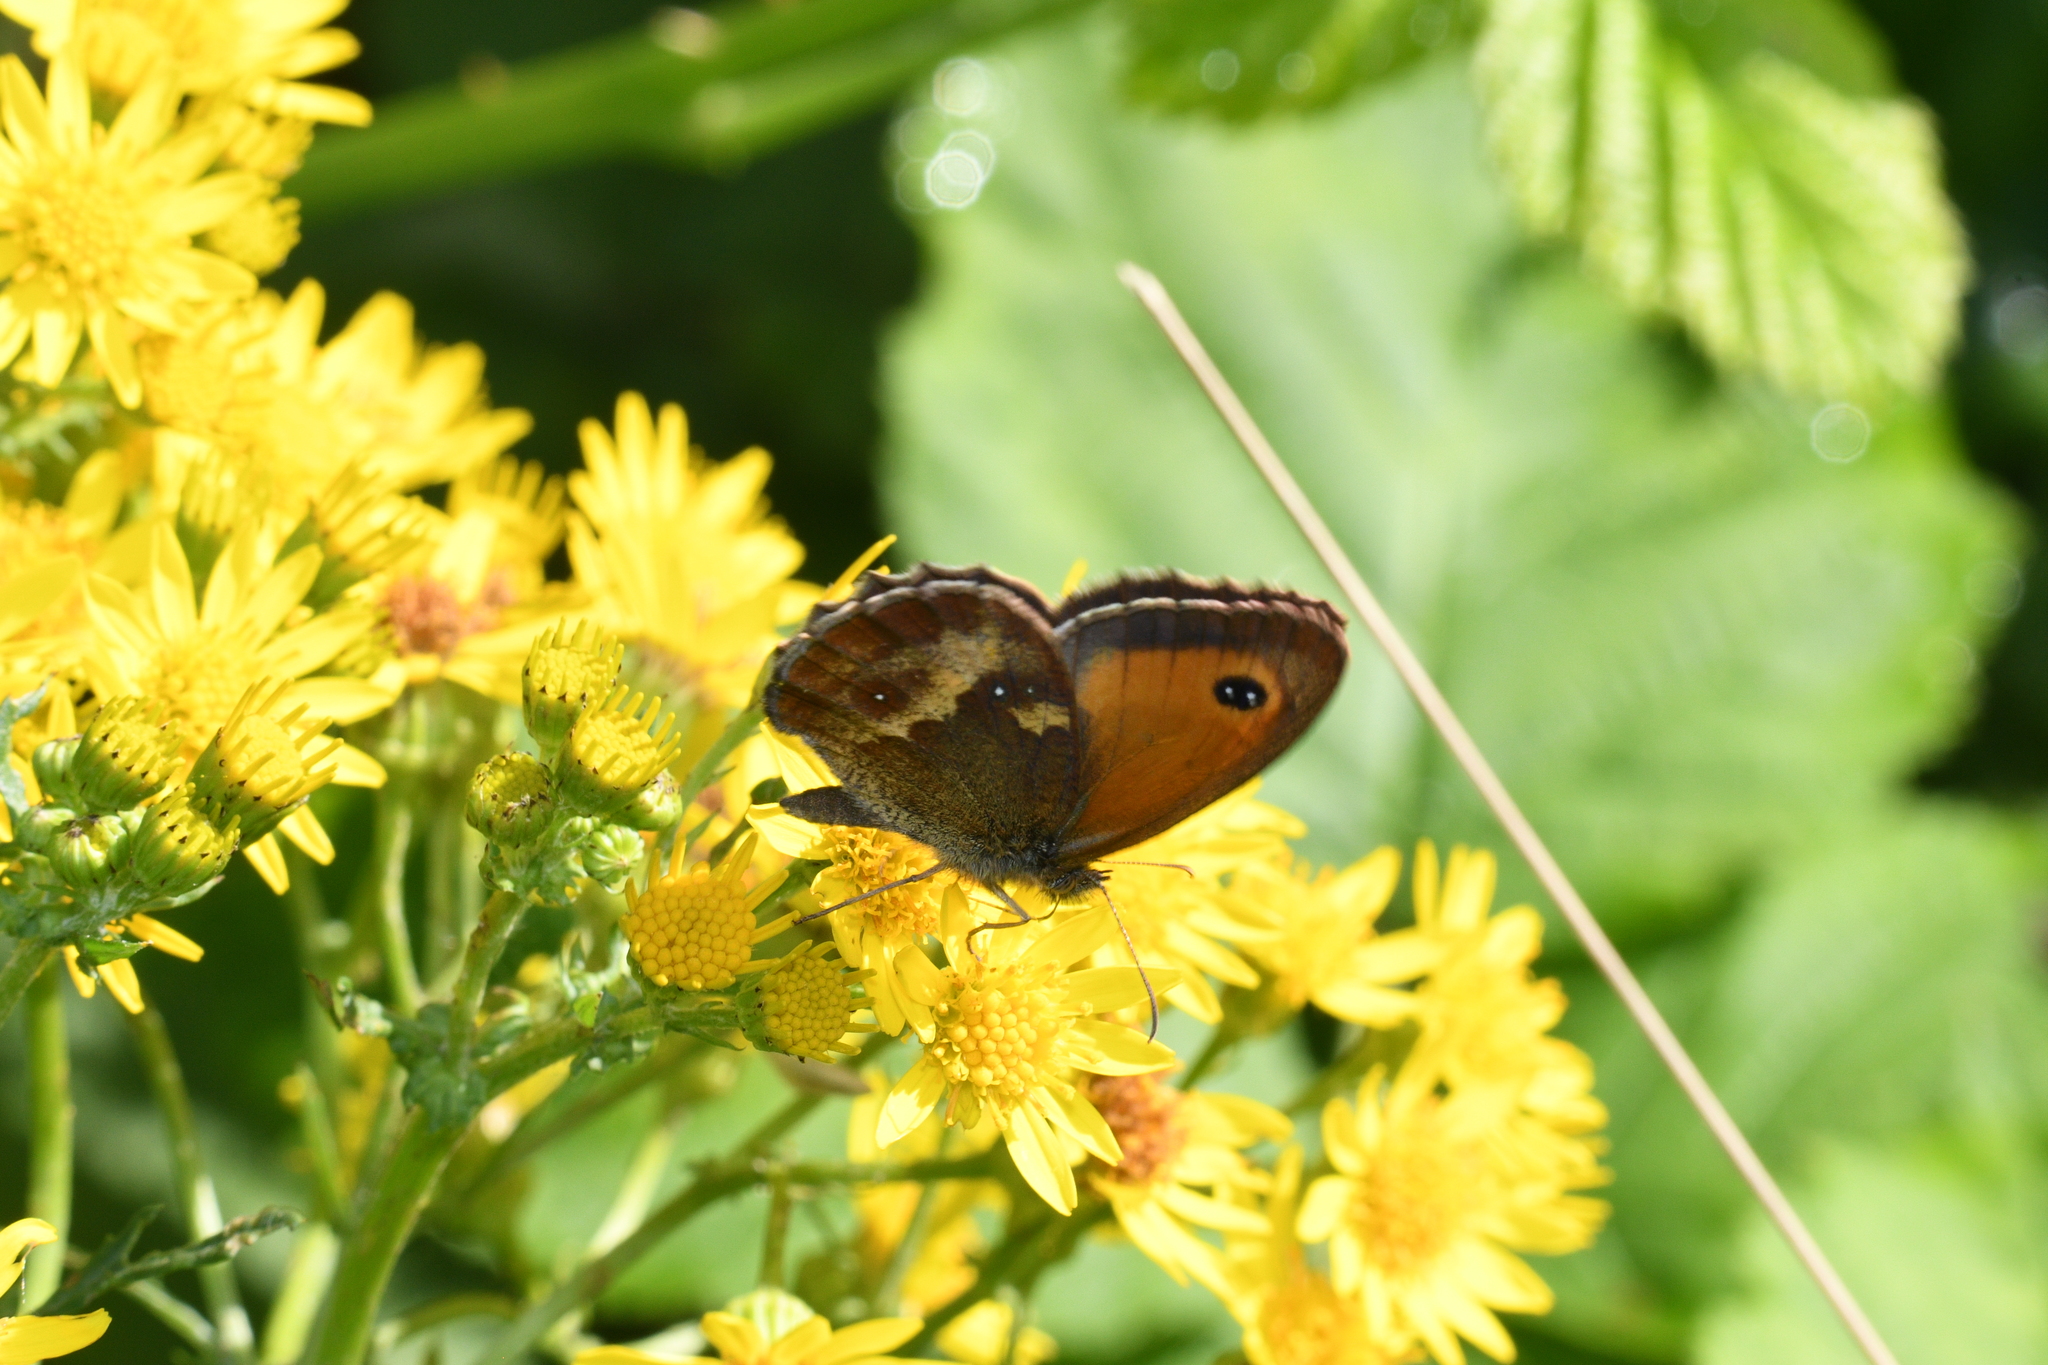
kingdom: Animalia
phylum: Arthropoda
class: Insecta
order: Lepidoptera
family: Nymphalidae
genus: Pyronia
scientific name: Pyronia tithonus
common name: Gatekeeper
